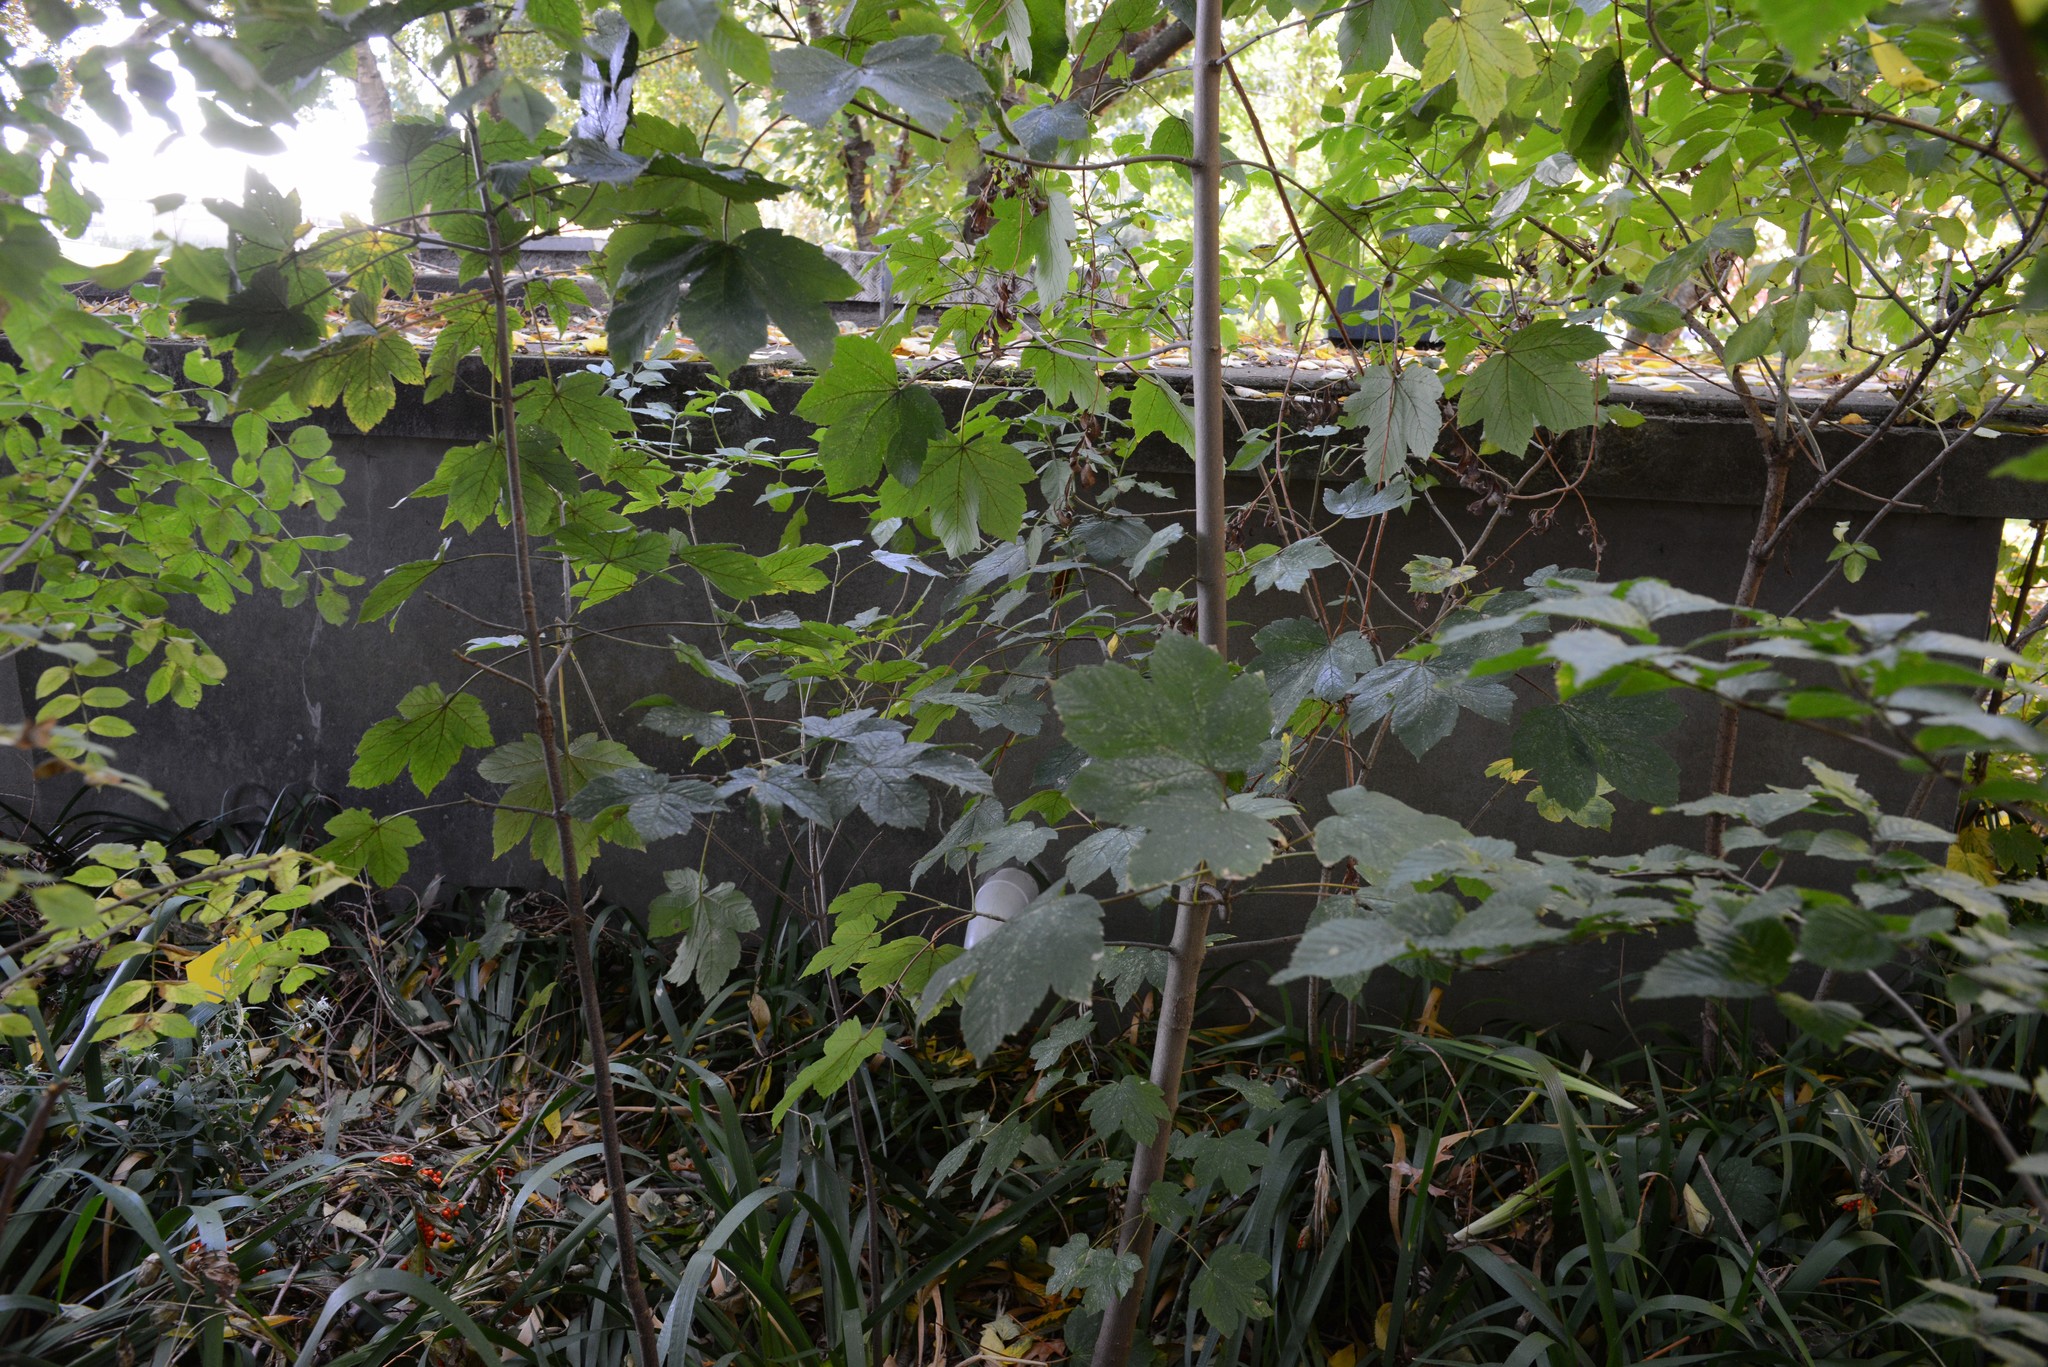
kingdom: Plantae
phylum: Tracheophyta
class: Magnoliopsida
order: Sapindales
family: Sapindaceae
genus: Acer
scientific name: Acer pseudoplatanus
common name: Sycamore
